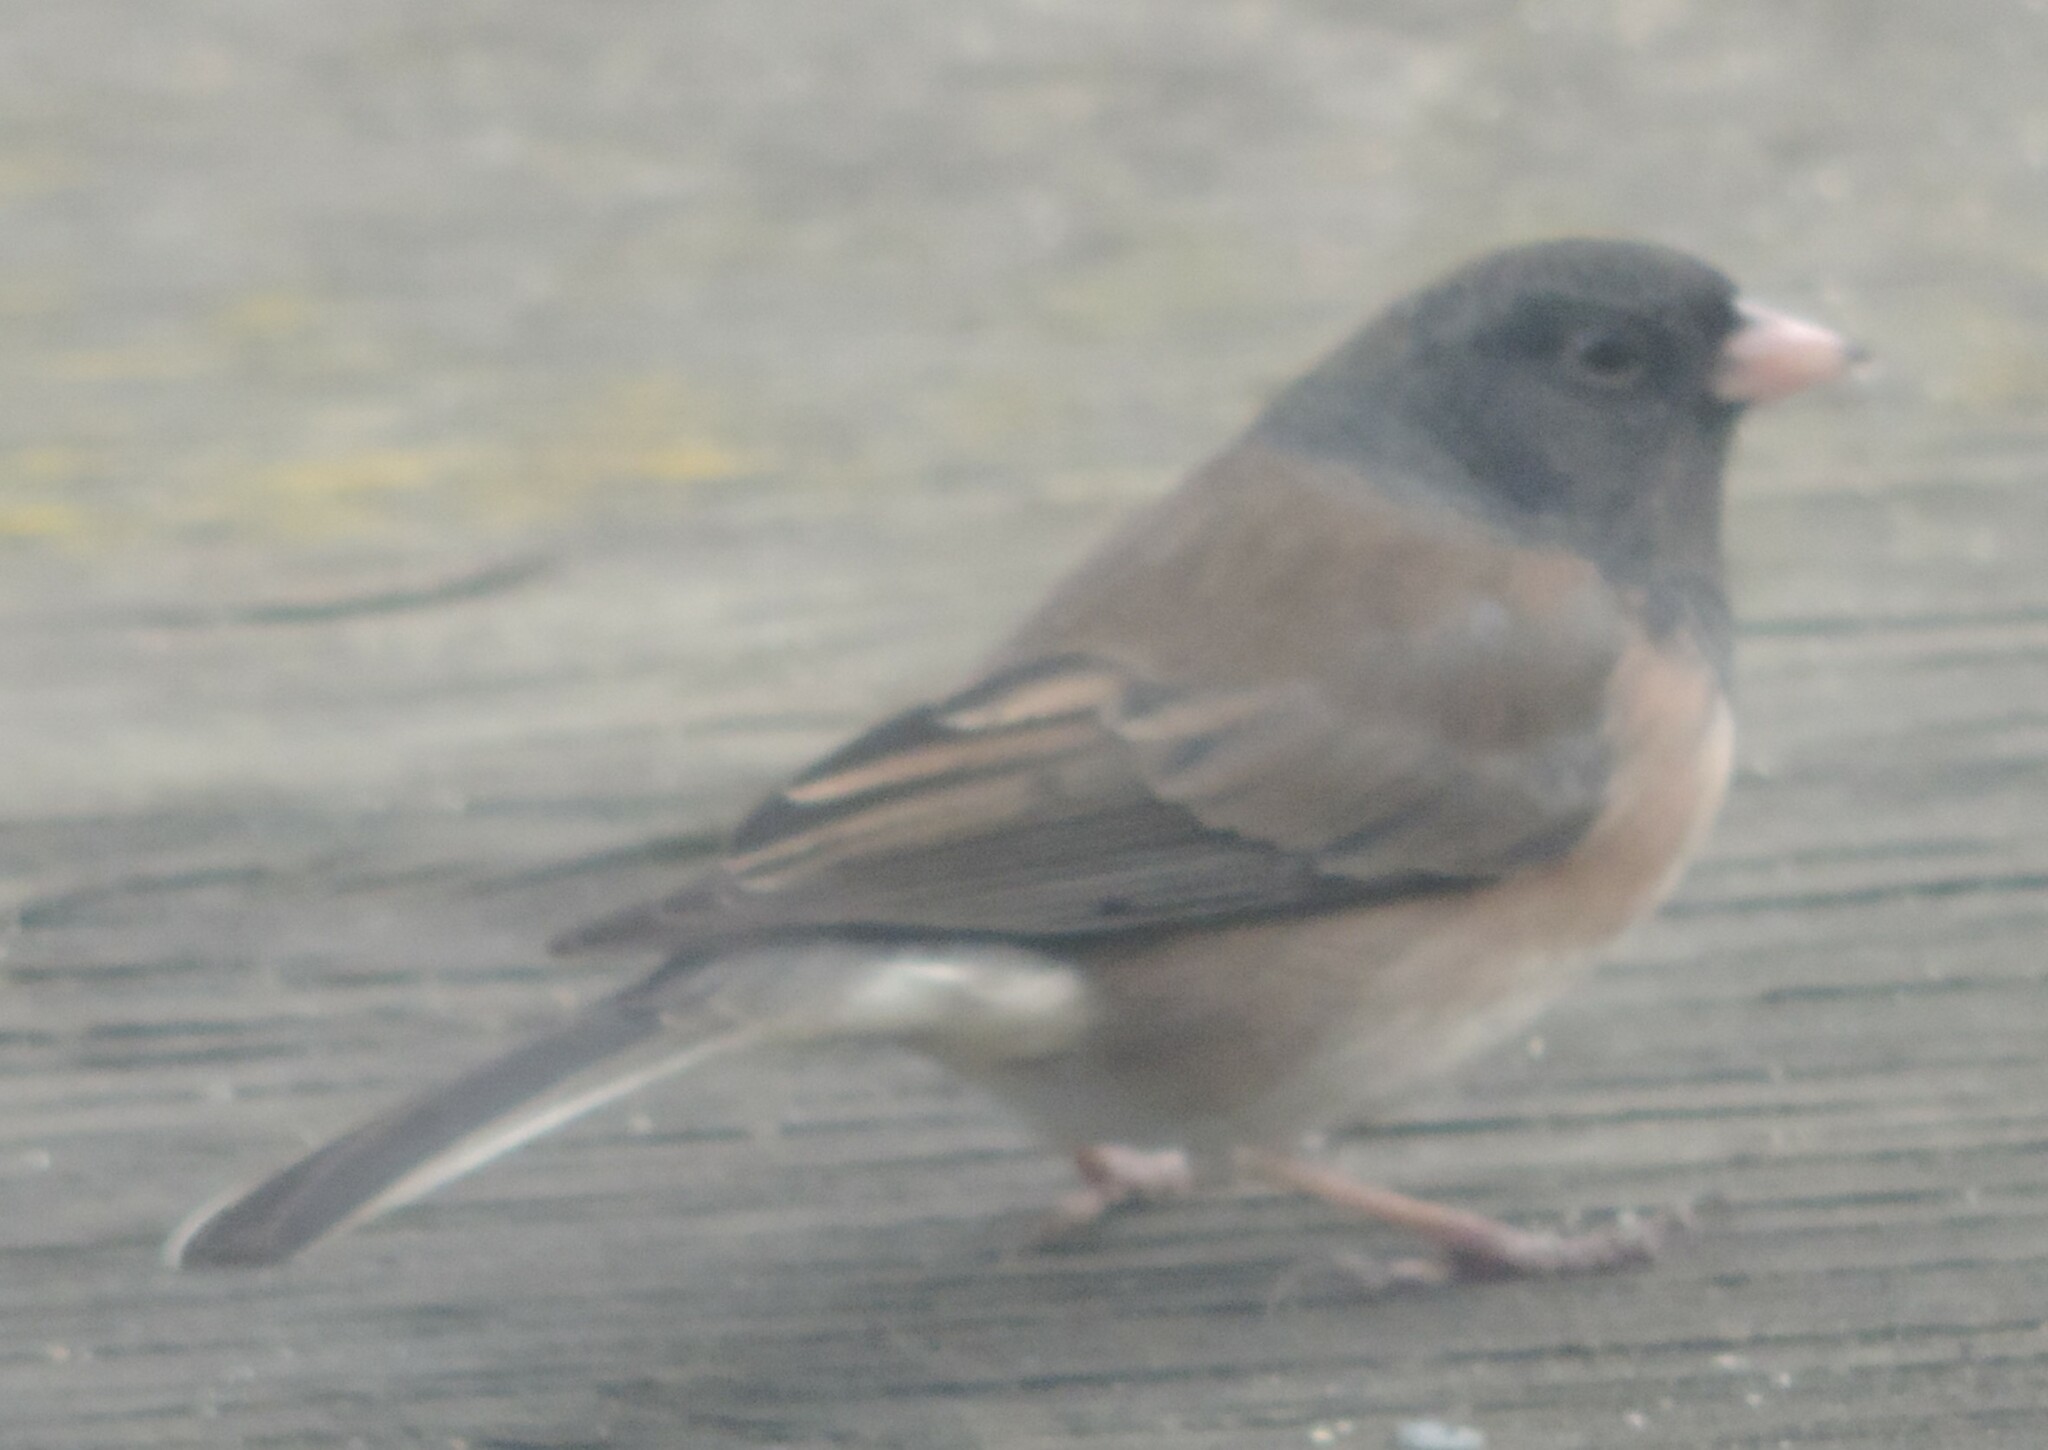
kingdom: Animalia
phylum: Chordata
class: Aves
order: Passeriformes
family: Passerellidae
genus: Junco
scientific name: Junco hyemalis
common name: Dark-eyed junco
